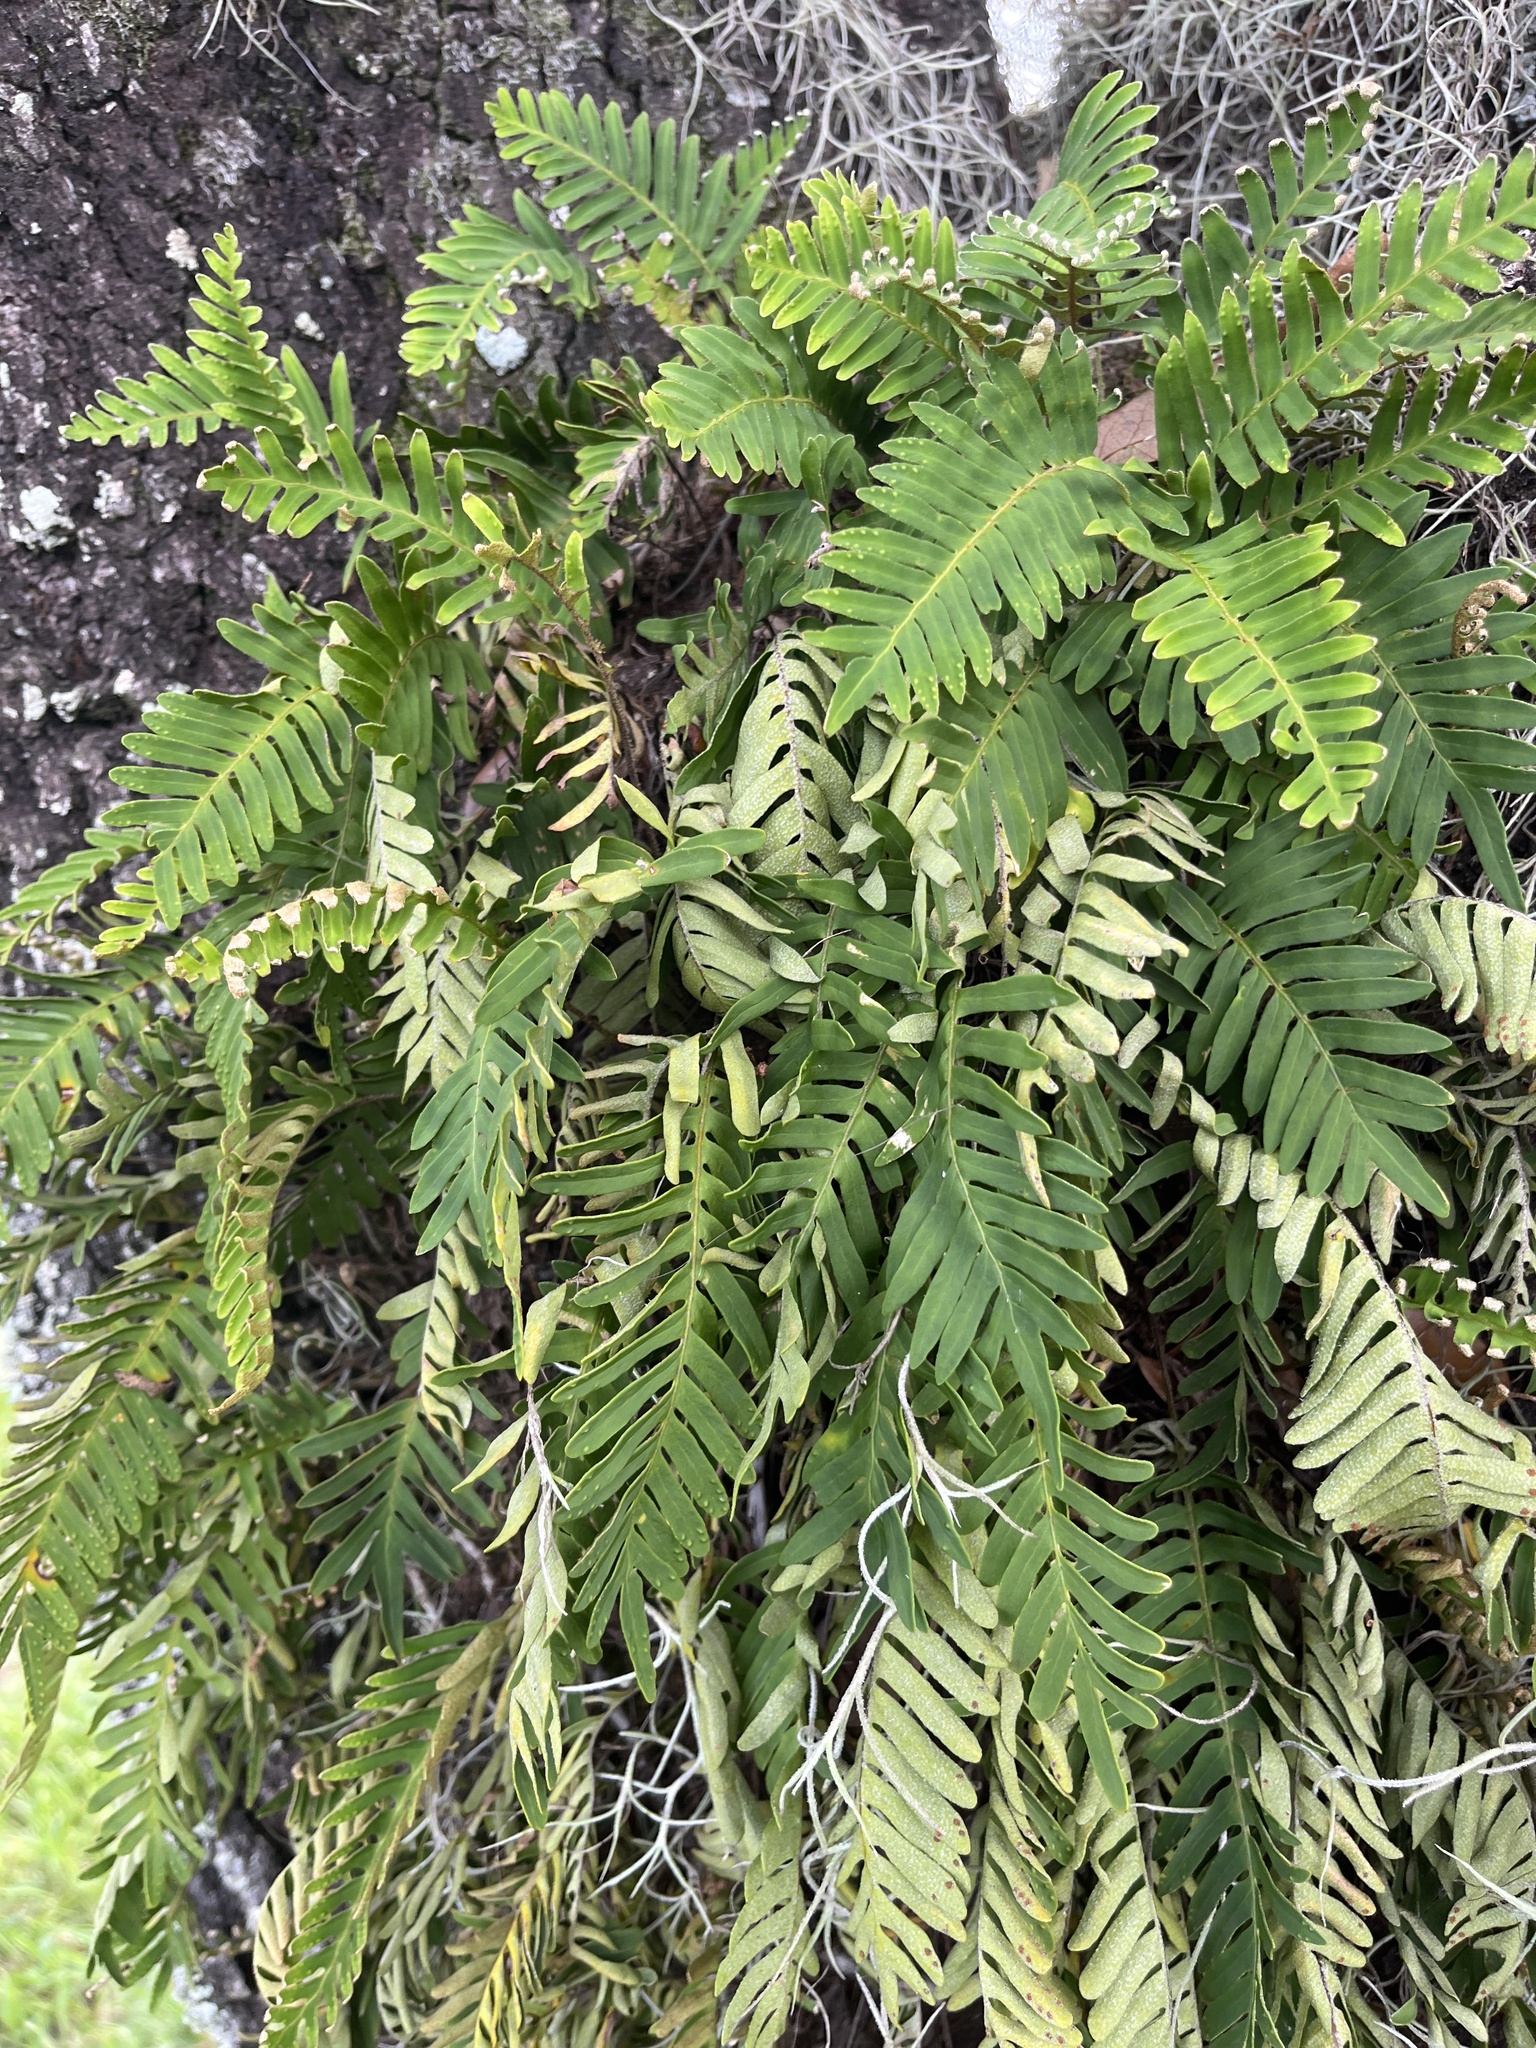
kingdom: Plantae
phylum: Tracheophyta
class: Polypodiopsida
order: Polypodiales
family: Polypodiaceae
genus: Pleopeltis
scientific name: Pleopeltis michauxiana
